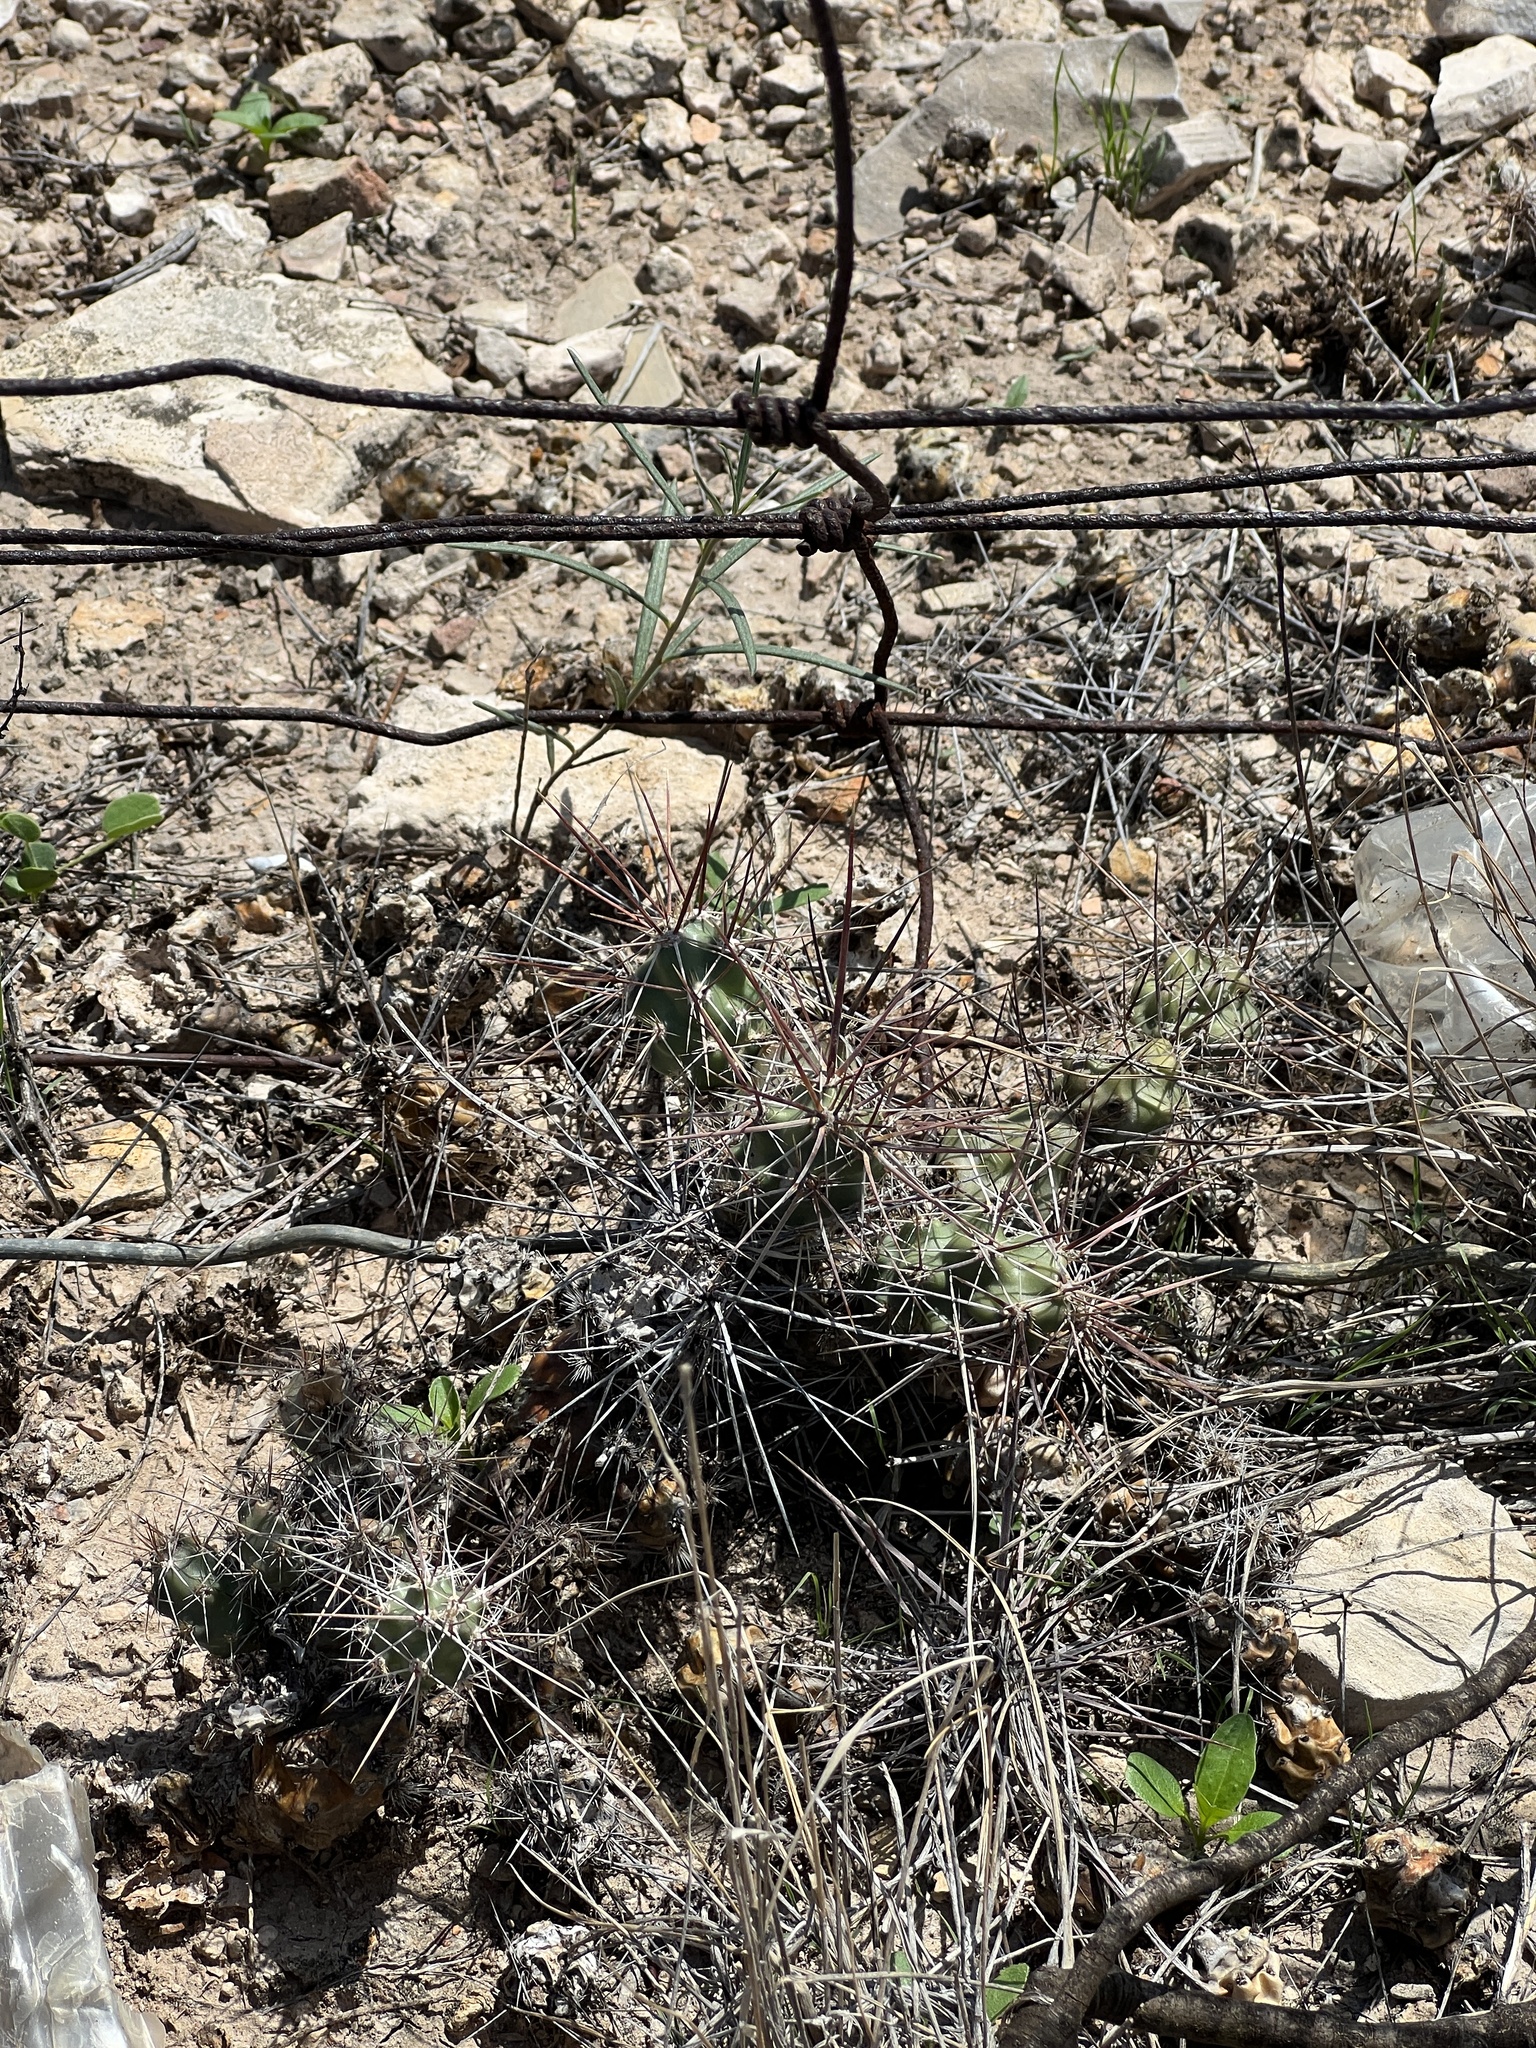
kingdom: Plantae
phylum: Tracheophyta
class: Magnoliopsida
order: Caryophyllales
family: Cactaceae
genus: Grusonia
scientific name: Grusonia schottii
